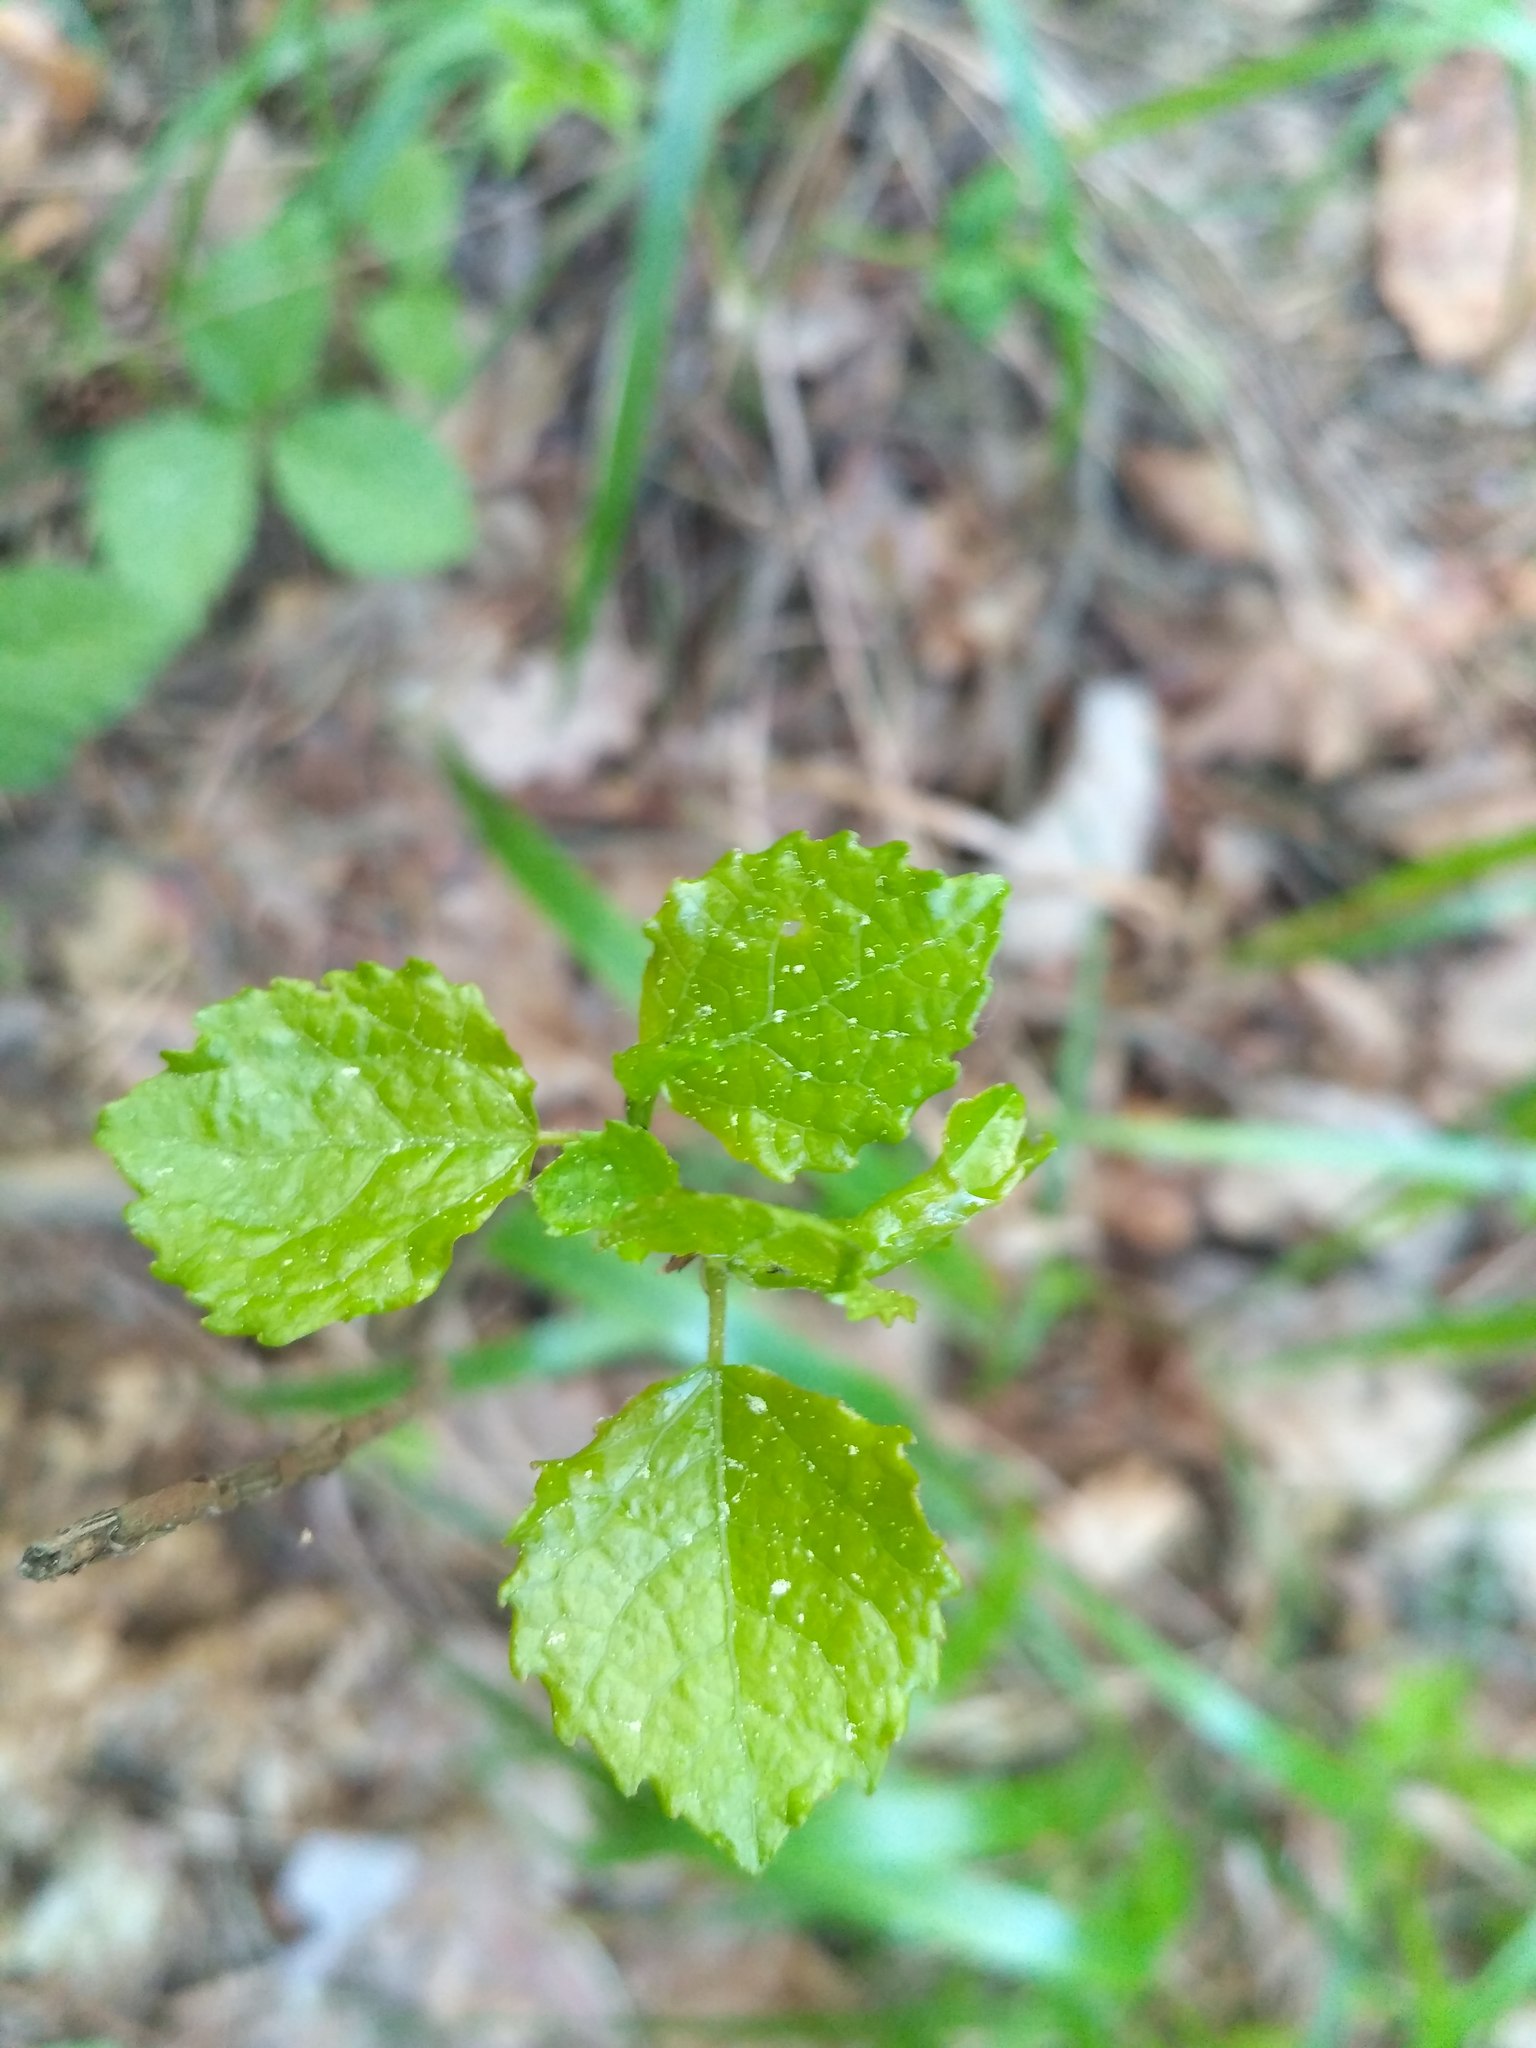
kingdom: Plantae
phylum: Tracheophyta
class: Magnoliopsida
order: Malpighiales
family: Salicaceae
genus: Populus
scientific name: Populus tremula
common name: European aspen
